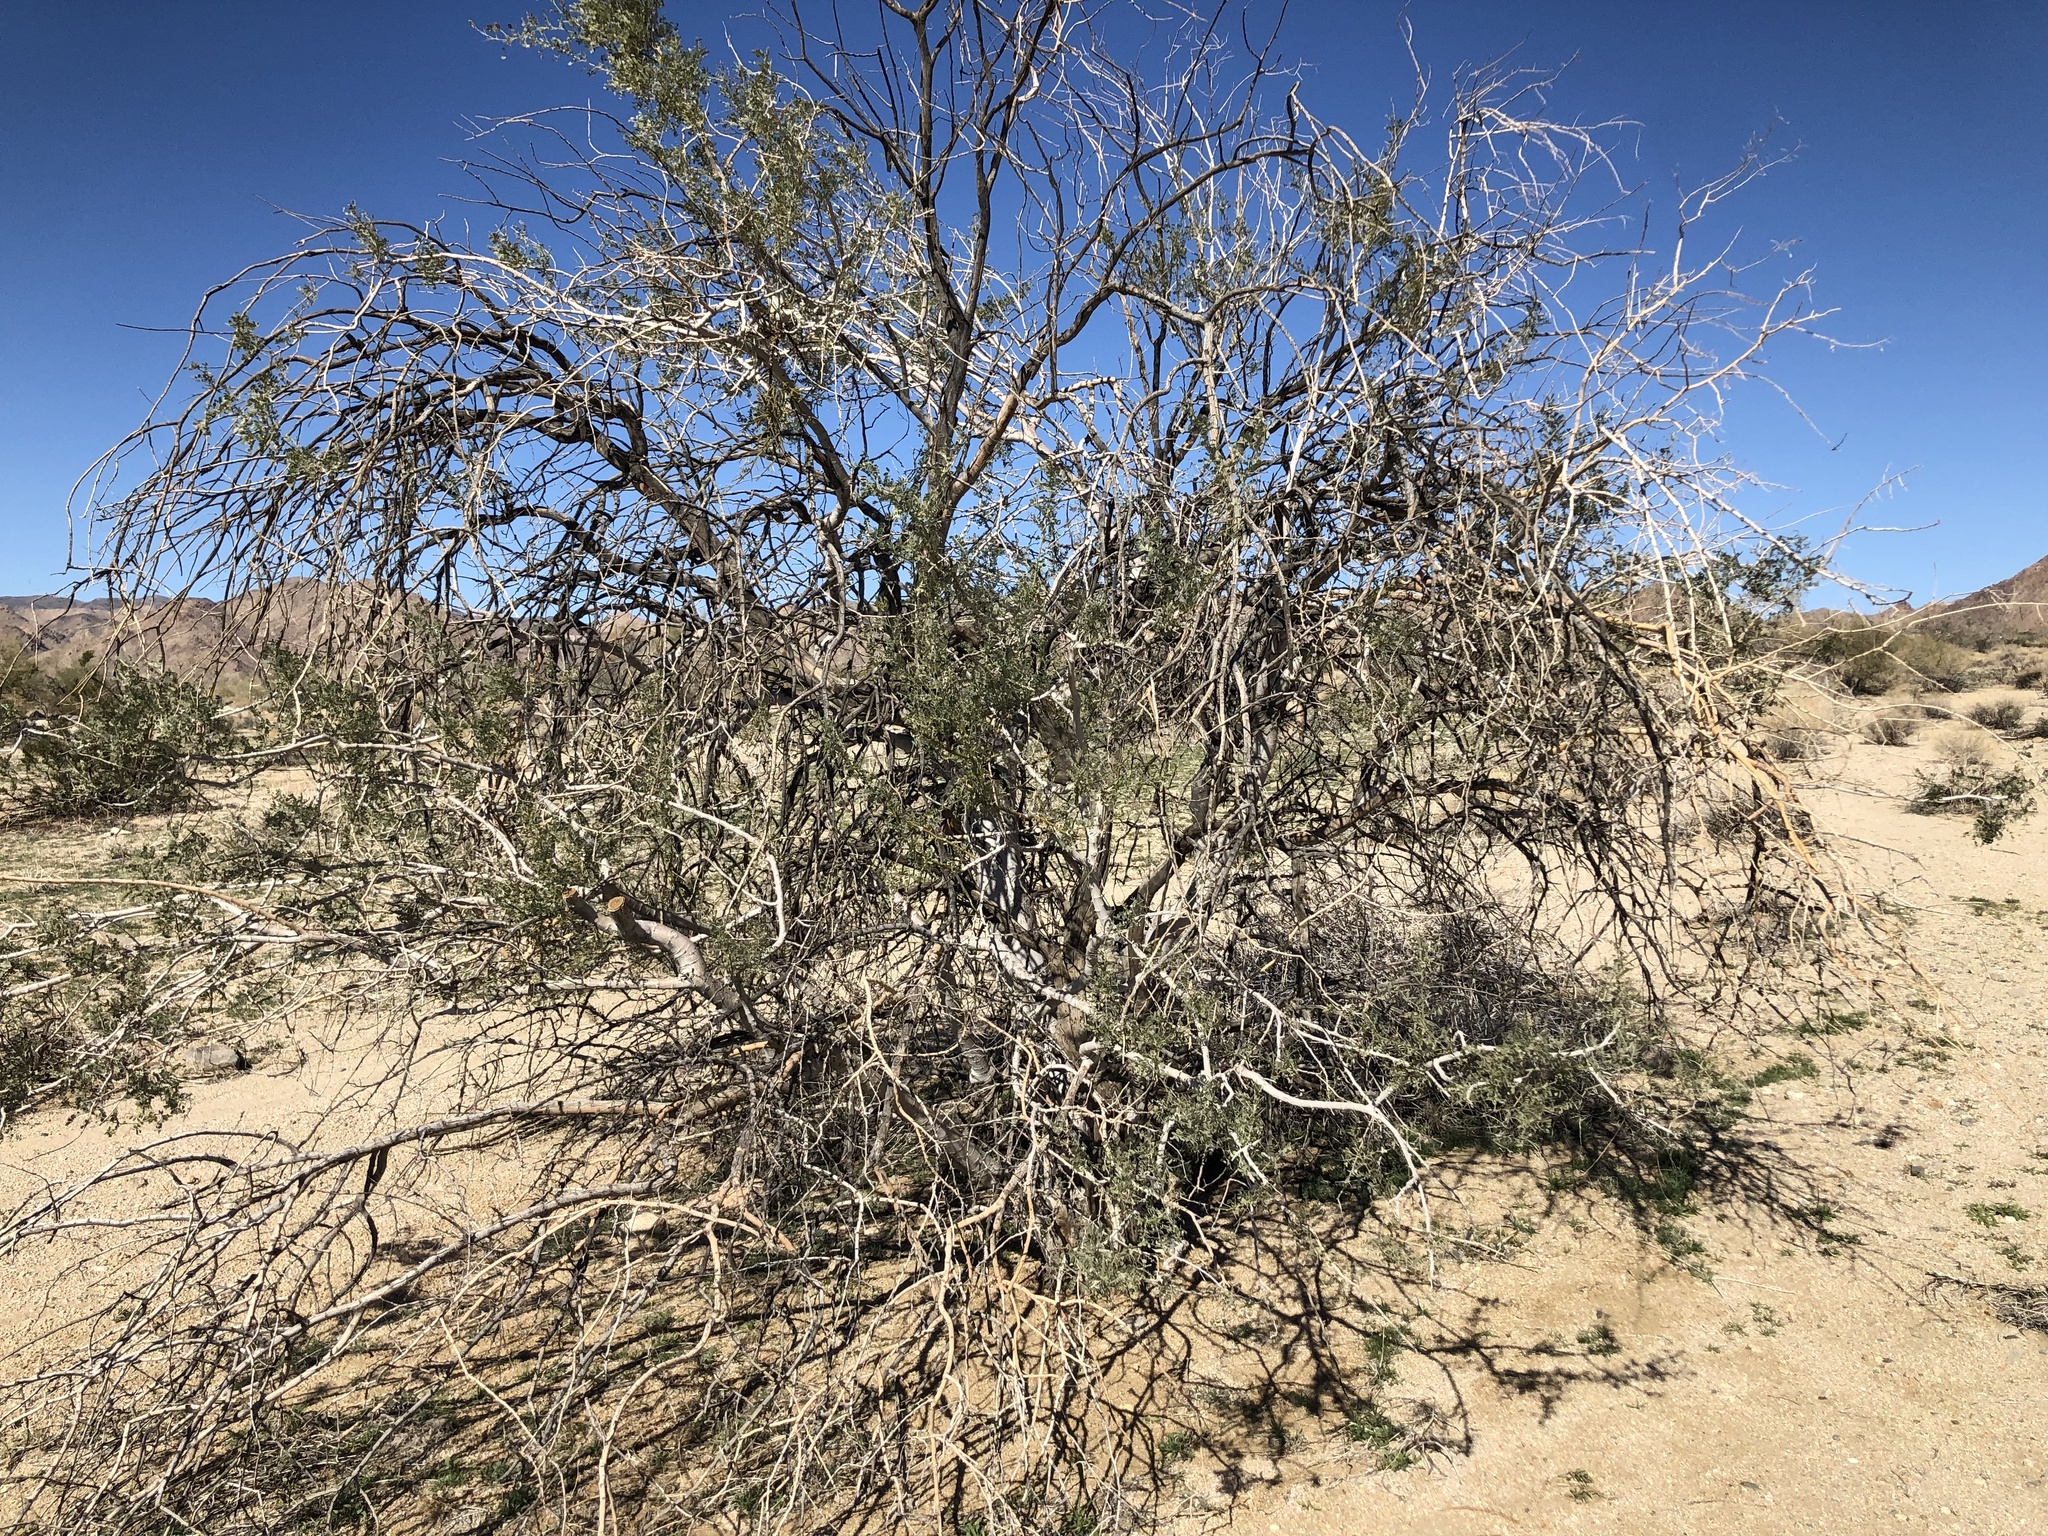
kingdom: Plantae
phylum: Tracheophyta
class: Magnoliopsida
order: Fabales
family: Fabaceae
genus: Olneya
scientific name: Olneya tesota
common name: Desert ironwood
